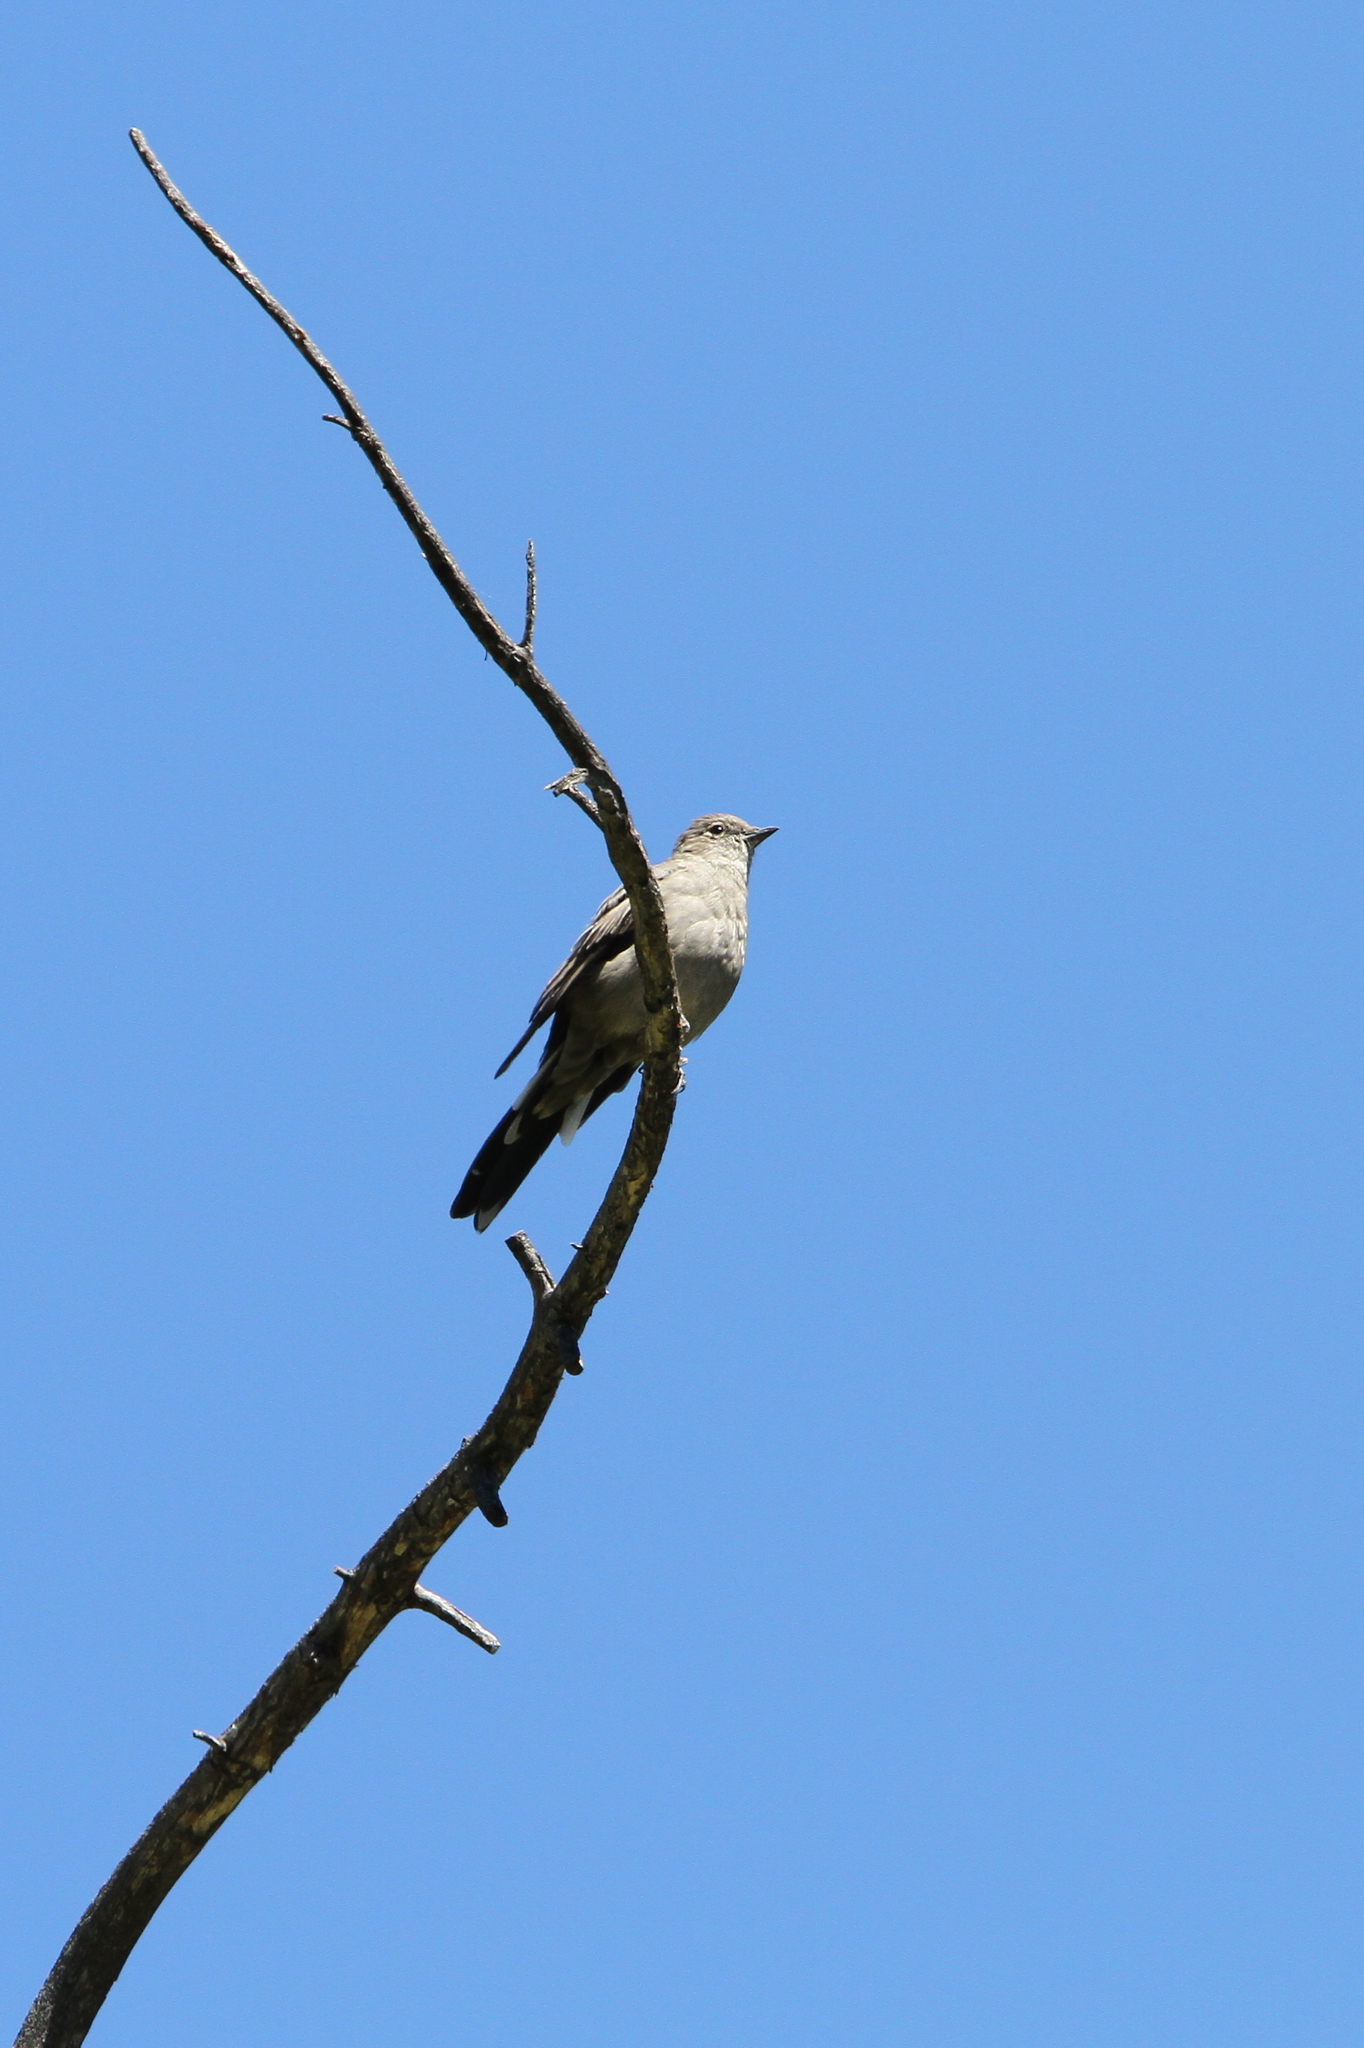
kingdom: Animalia
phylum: Chordata
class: Aves
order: Passeriformes
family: Turdidae
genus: Myadestes
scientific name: Myadestes townsendi
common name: Townsend's solitaire
